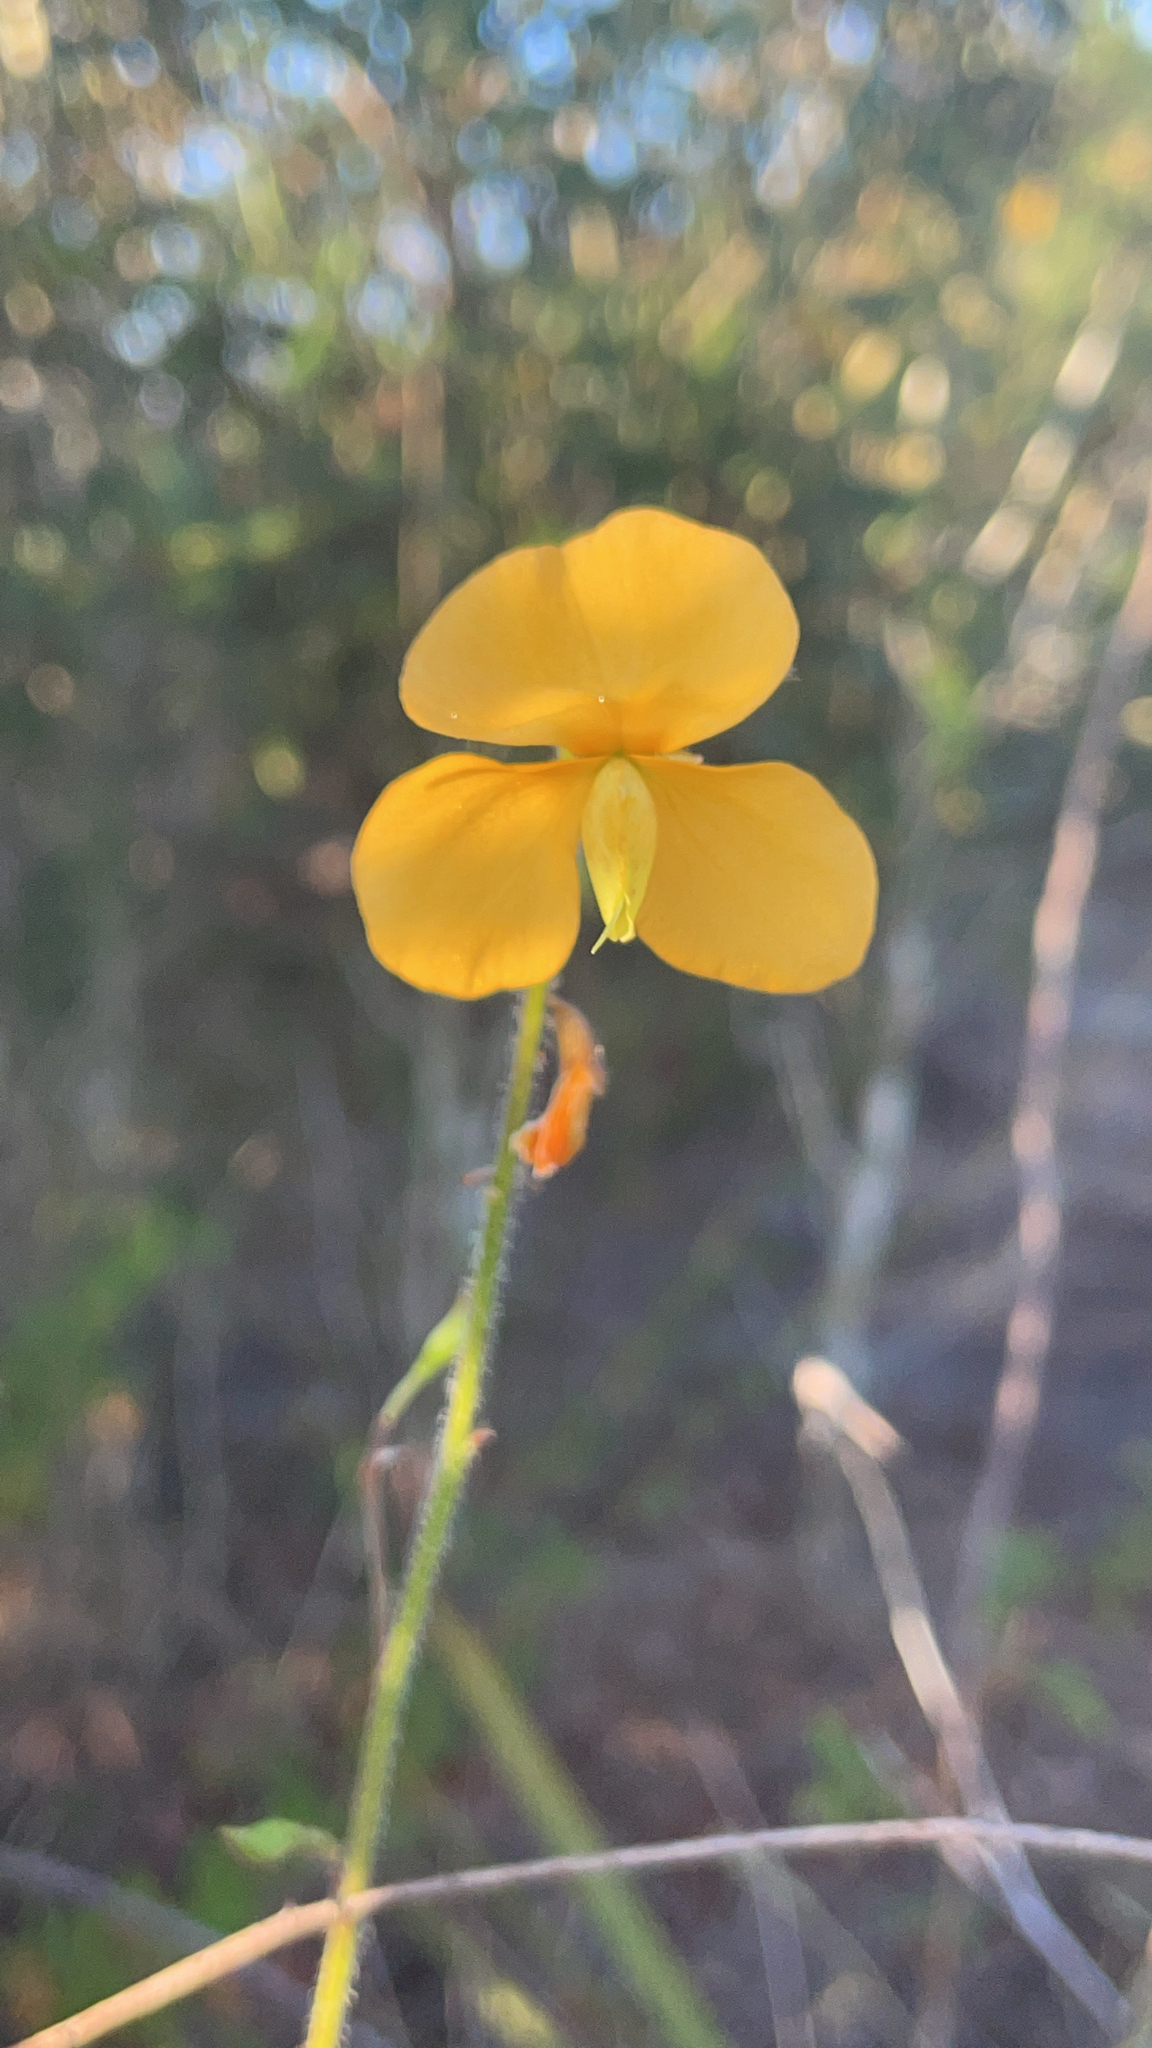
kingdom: Plantae
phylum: Tracheophyta
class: Magnoliopsida
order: Fabales
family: Fabaceae
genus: Chapmannia
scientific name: Chapmannia floridana
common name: Alicia
